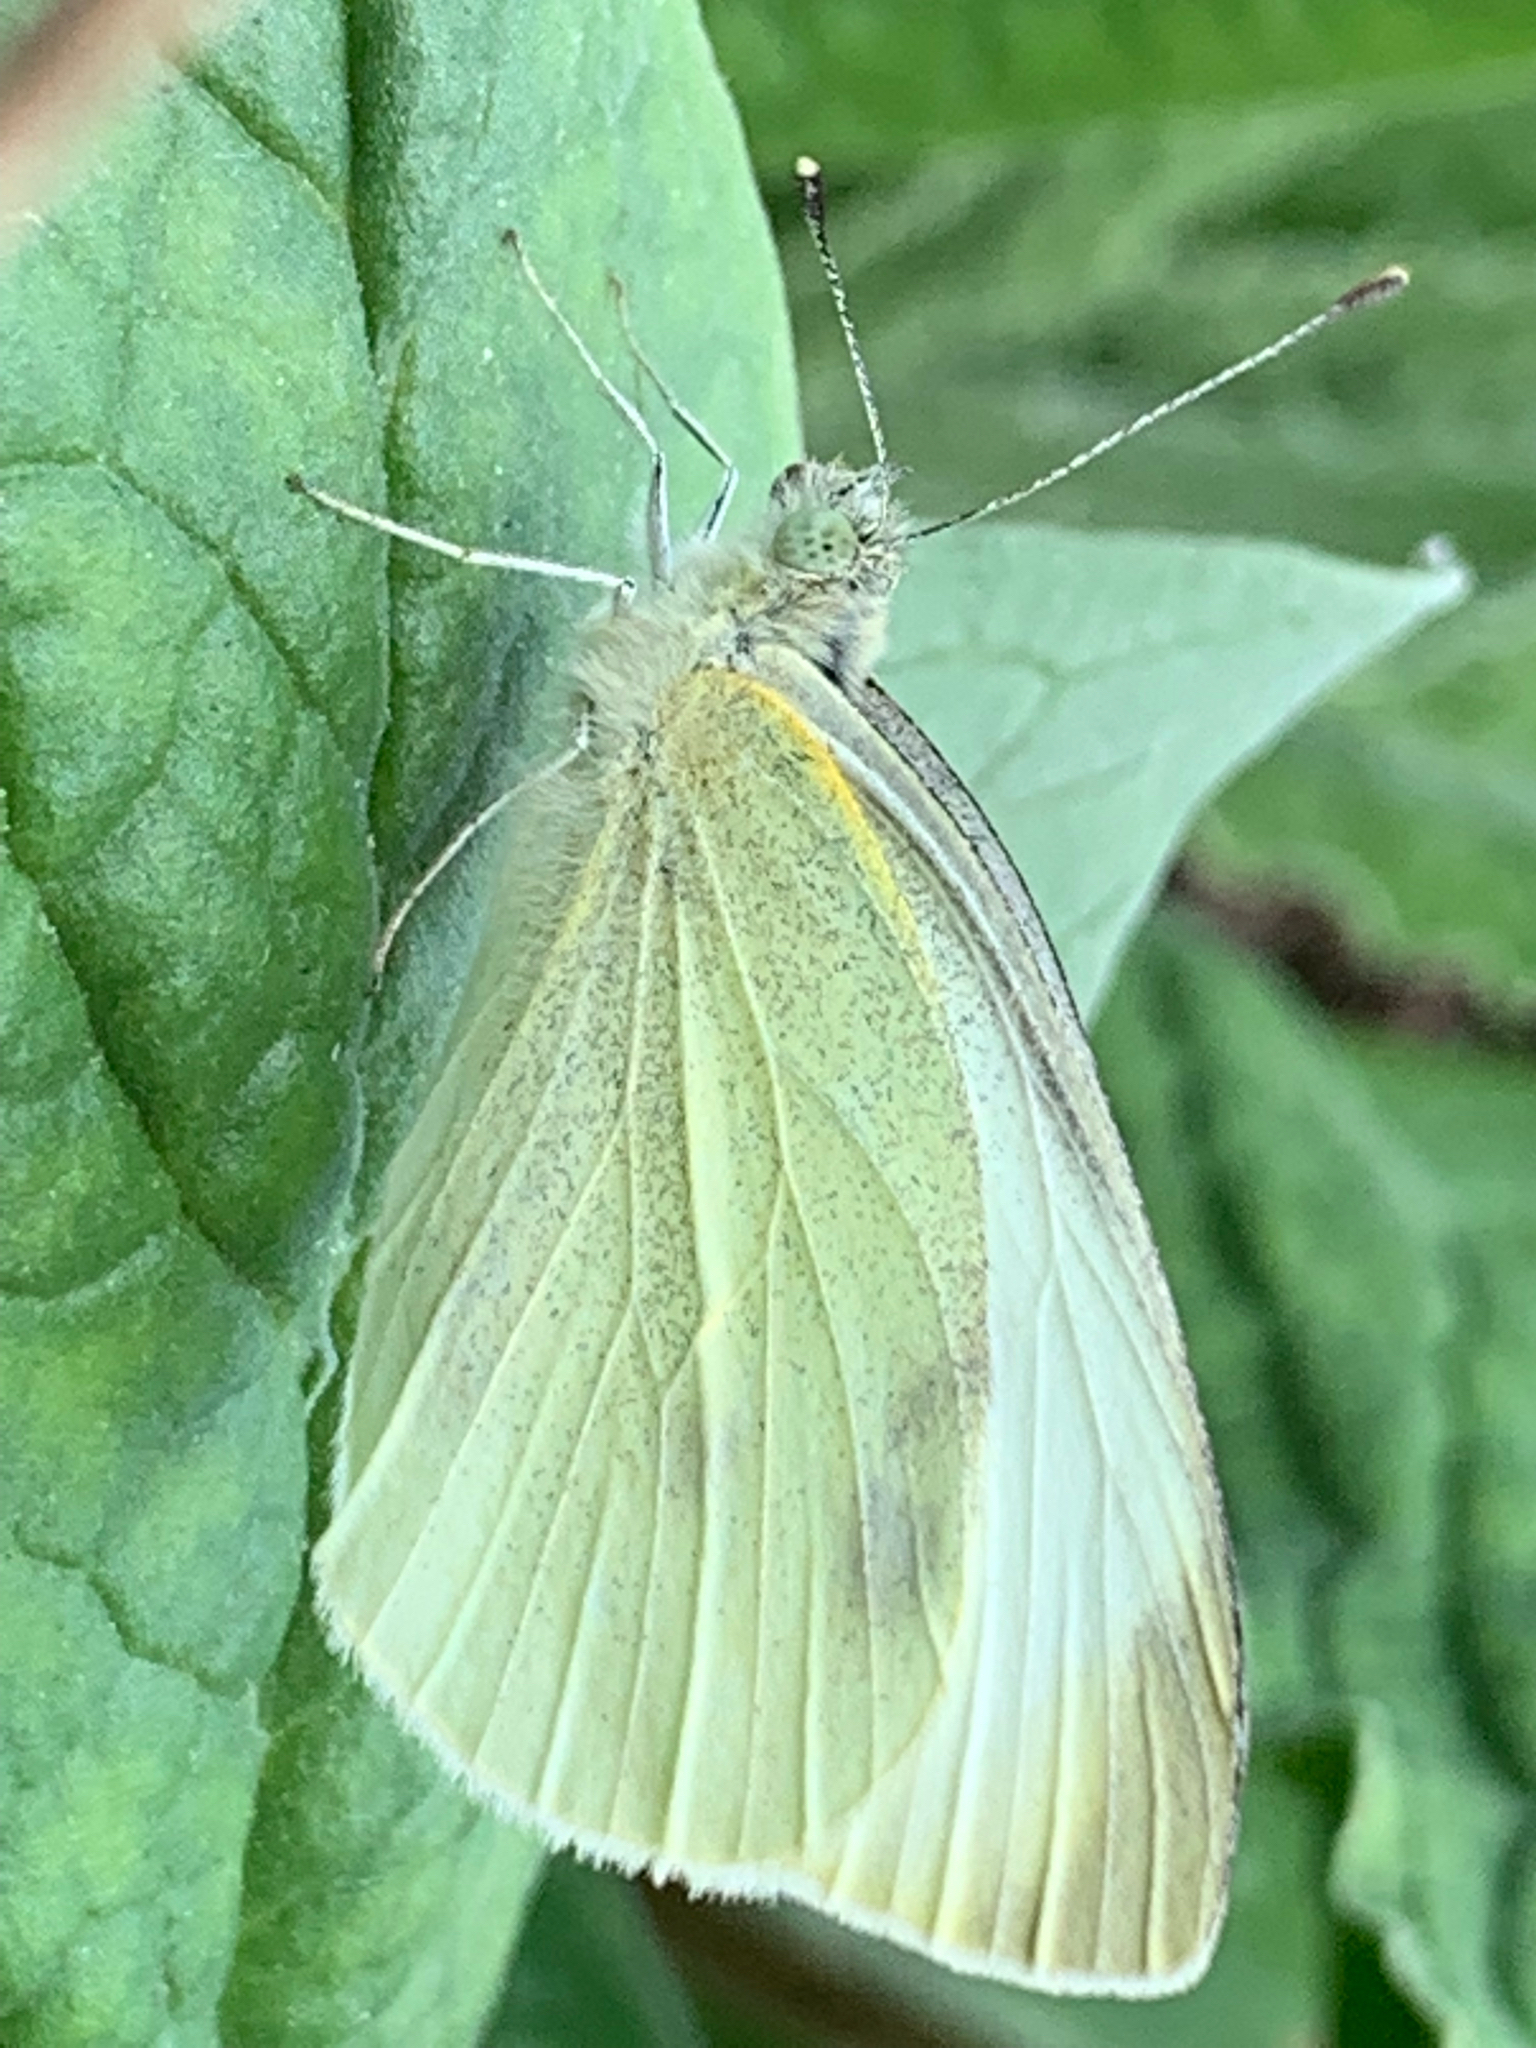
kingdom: Animalia
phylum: Arthropoda
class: Insecta
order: Lepidoptera
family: Pieridae
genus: Pieris
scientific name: Pieris rapae
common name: Small white
